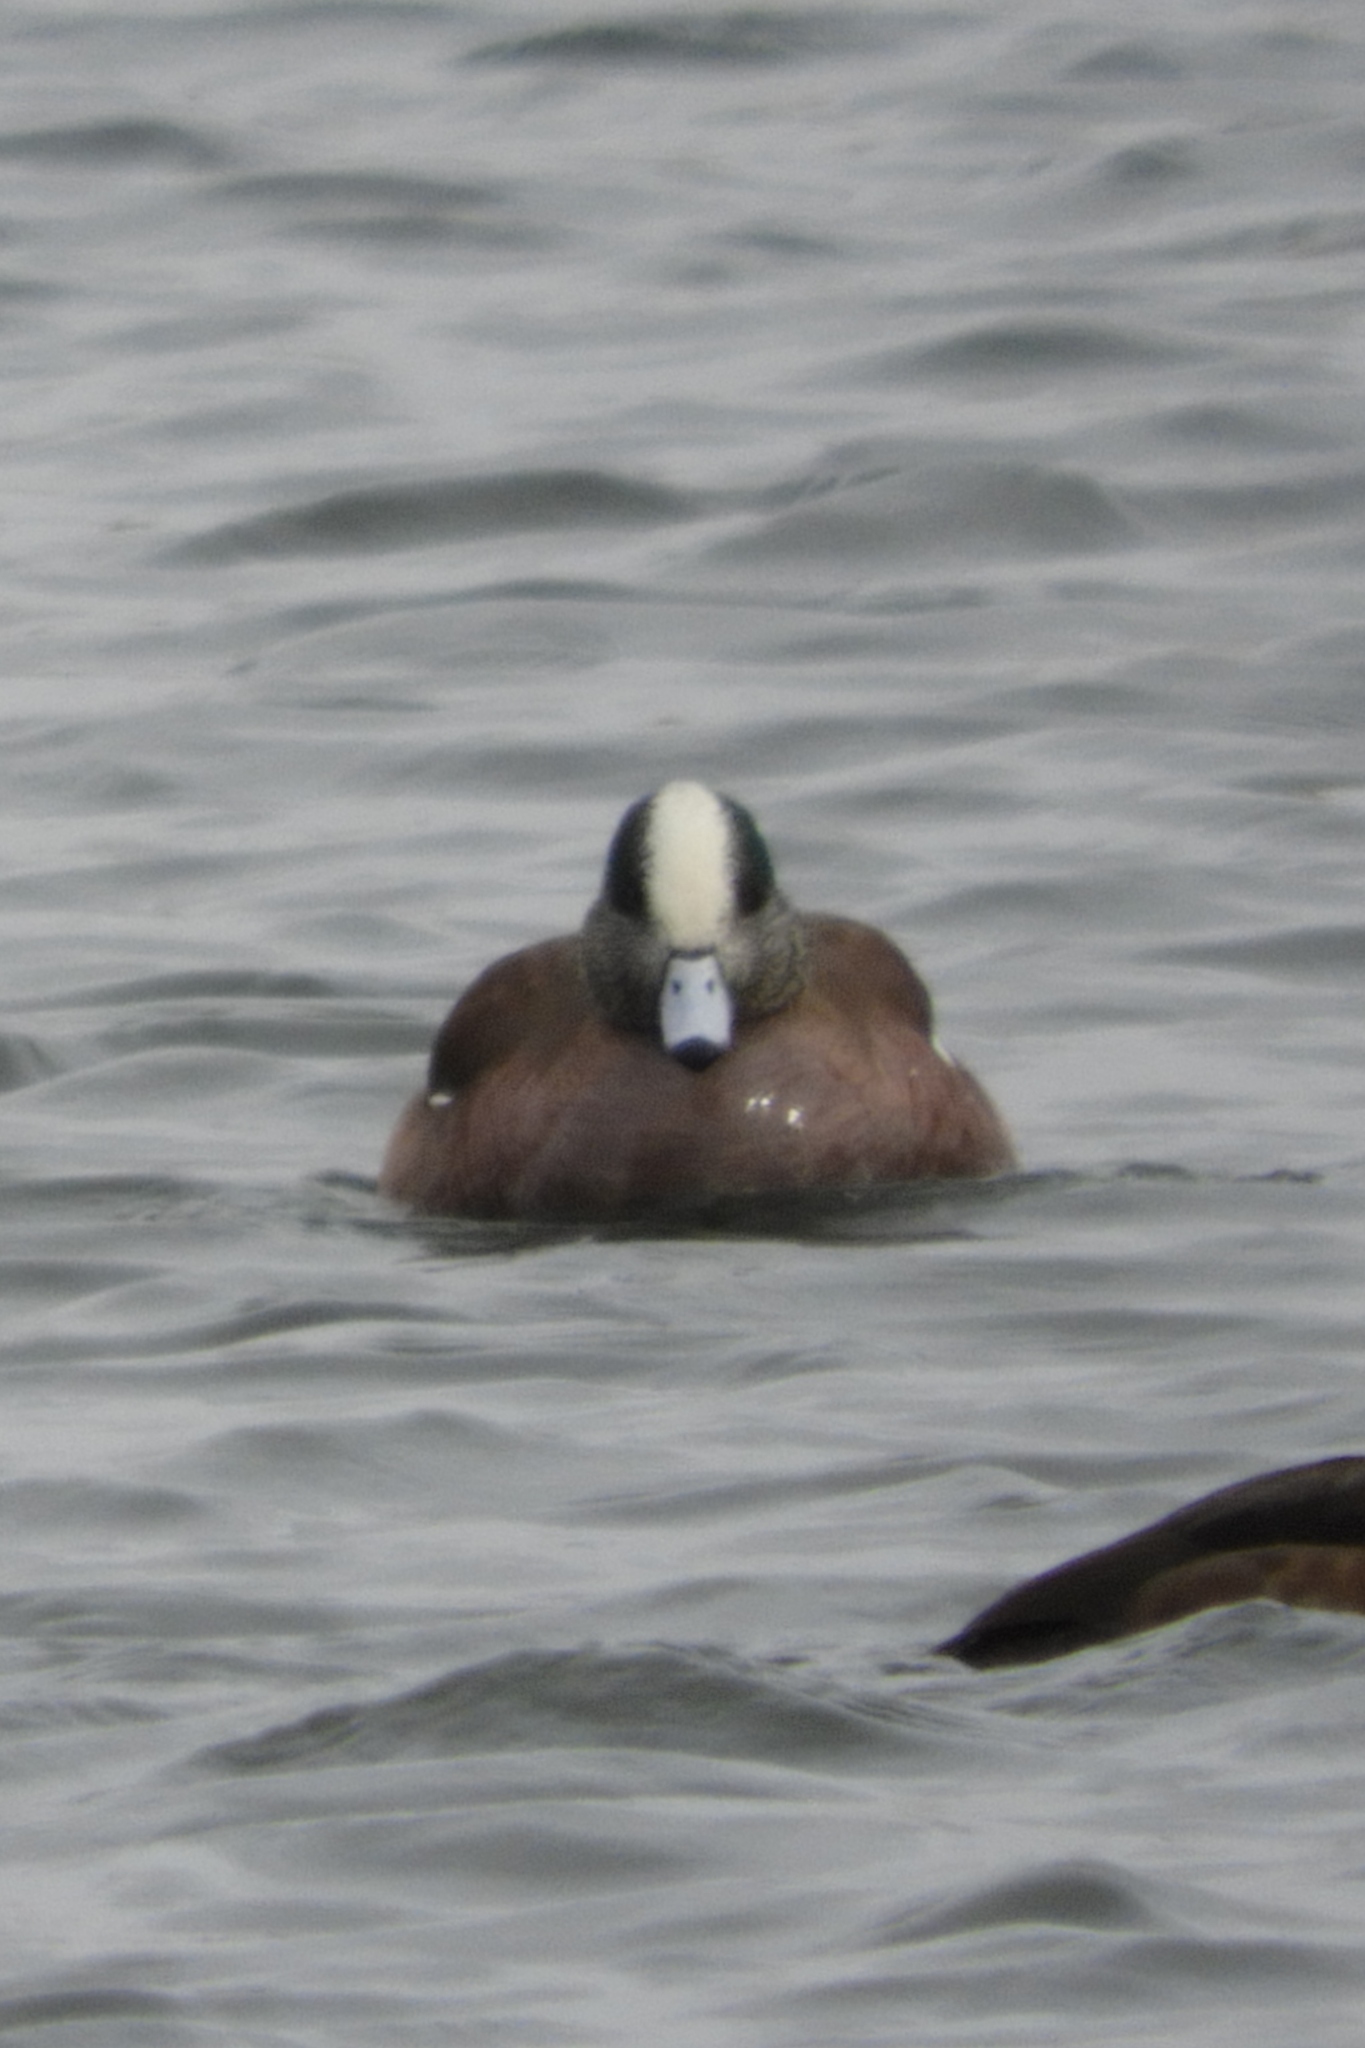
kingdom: Animalia
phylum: Chordata
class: Aves
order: Anseriformes
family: Anatidae
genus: Mareca
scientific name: Mareca americana
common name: American wigeon
